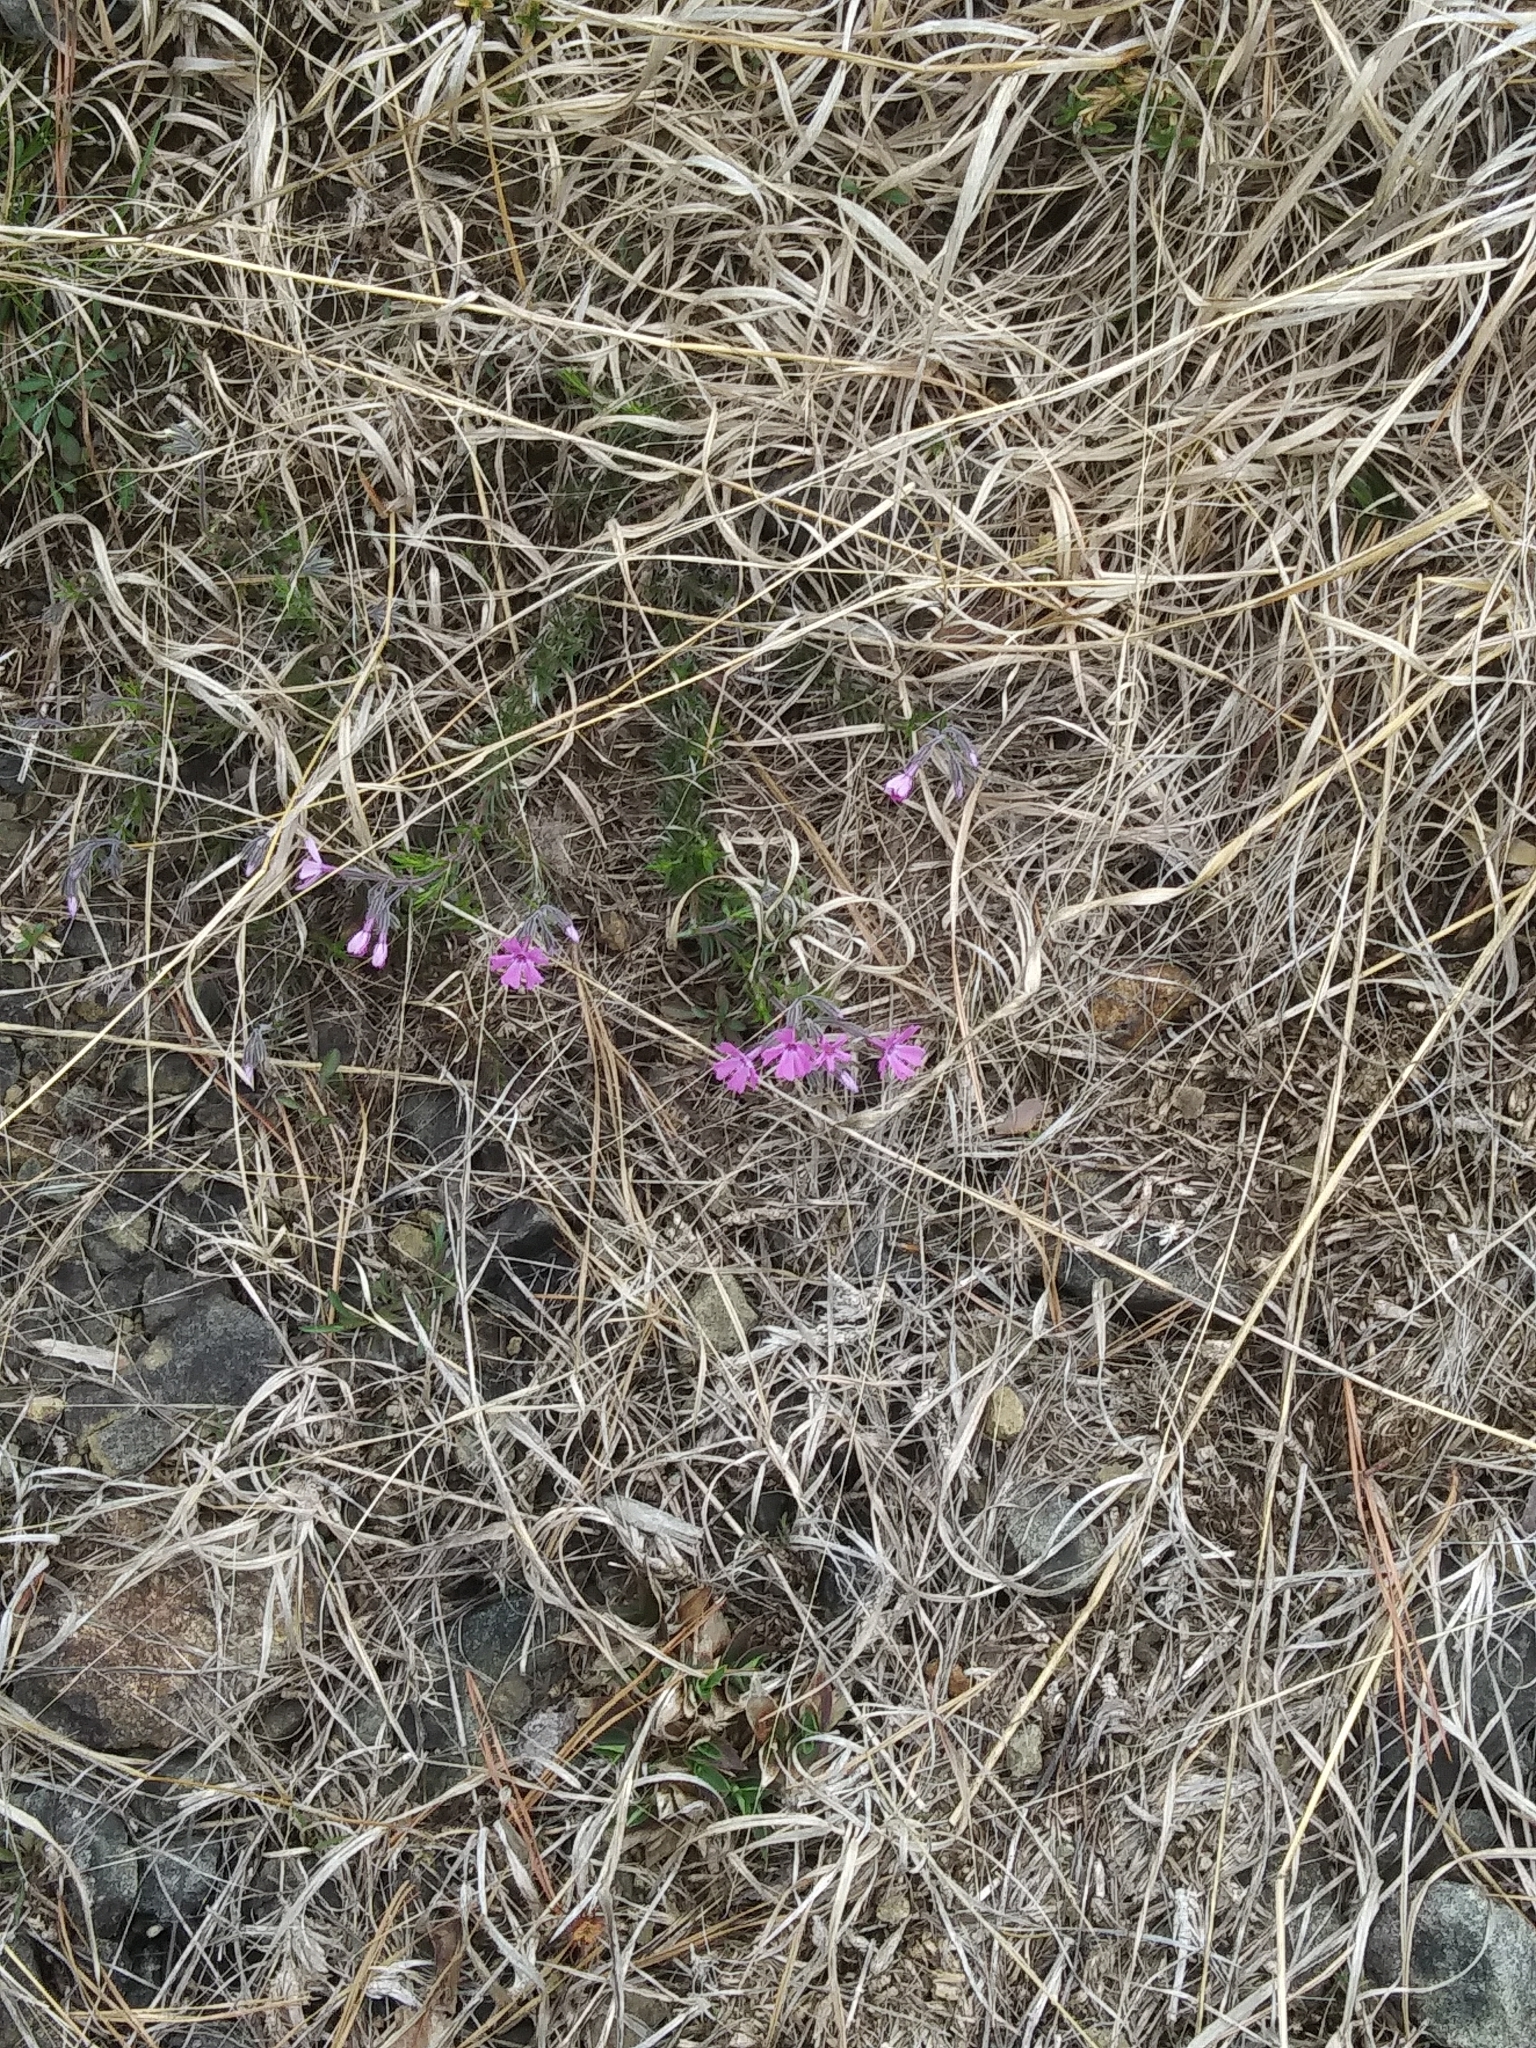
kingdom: Plantae
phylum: Tracheophyta
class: Magnoliopsida
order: Ericales
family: Polemoniaceae
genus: Phlox
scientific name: Phlox subulata
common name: Moss phlox
